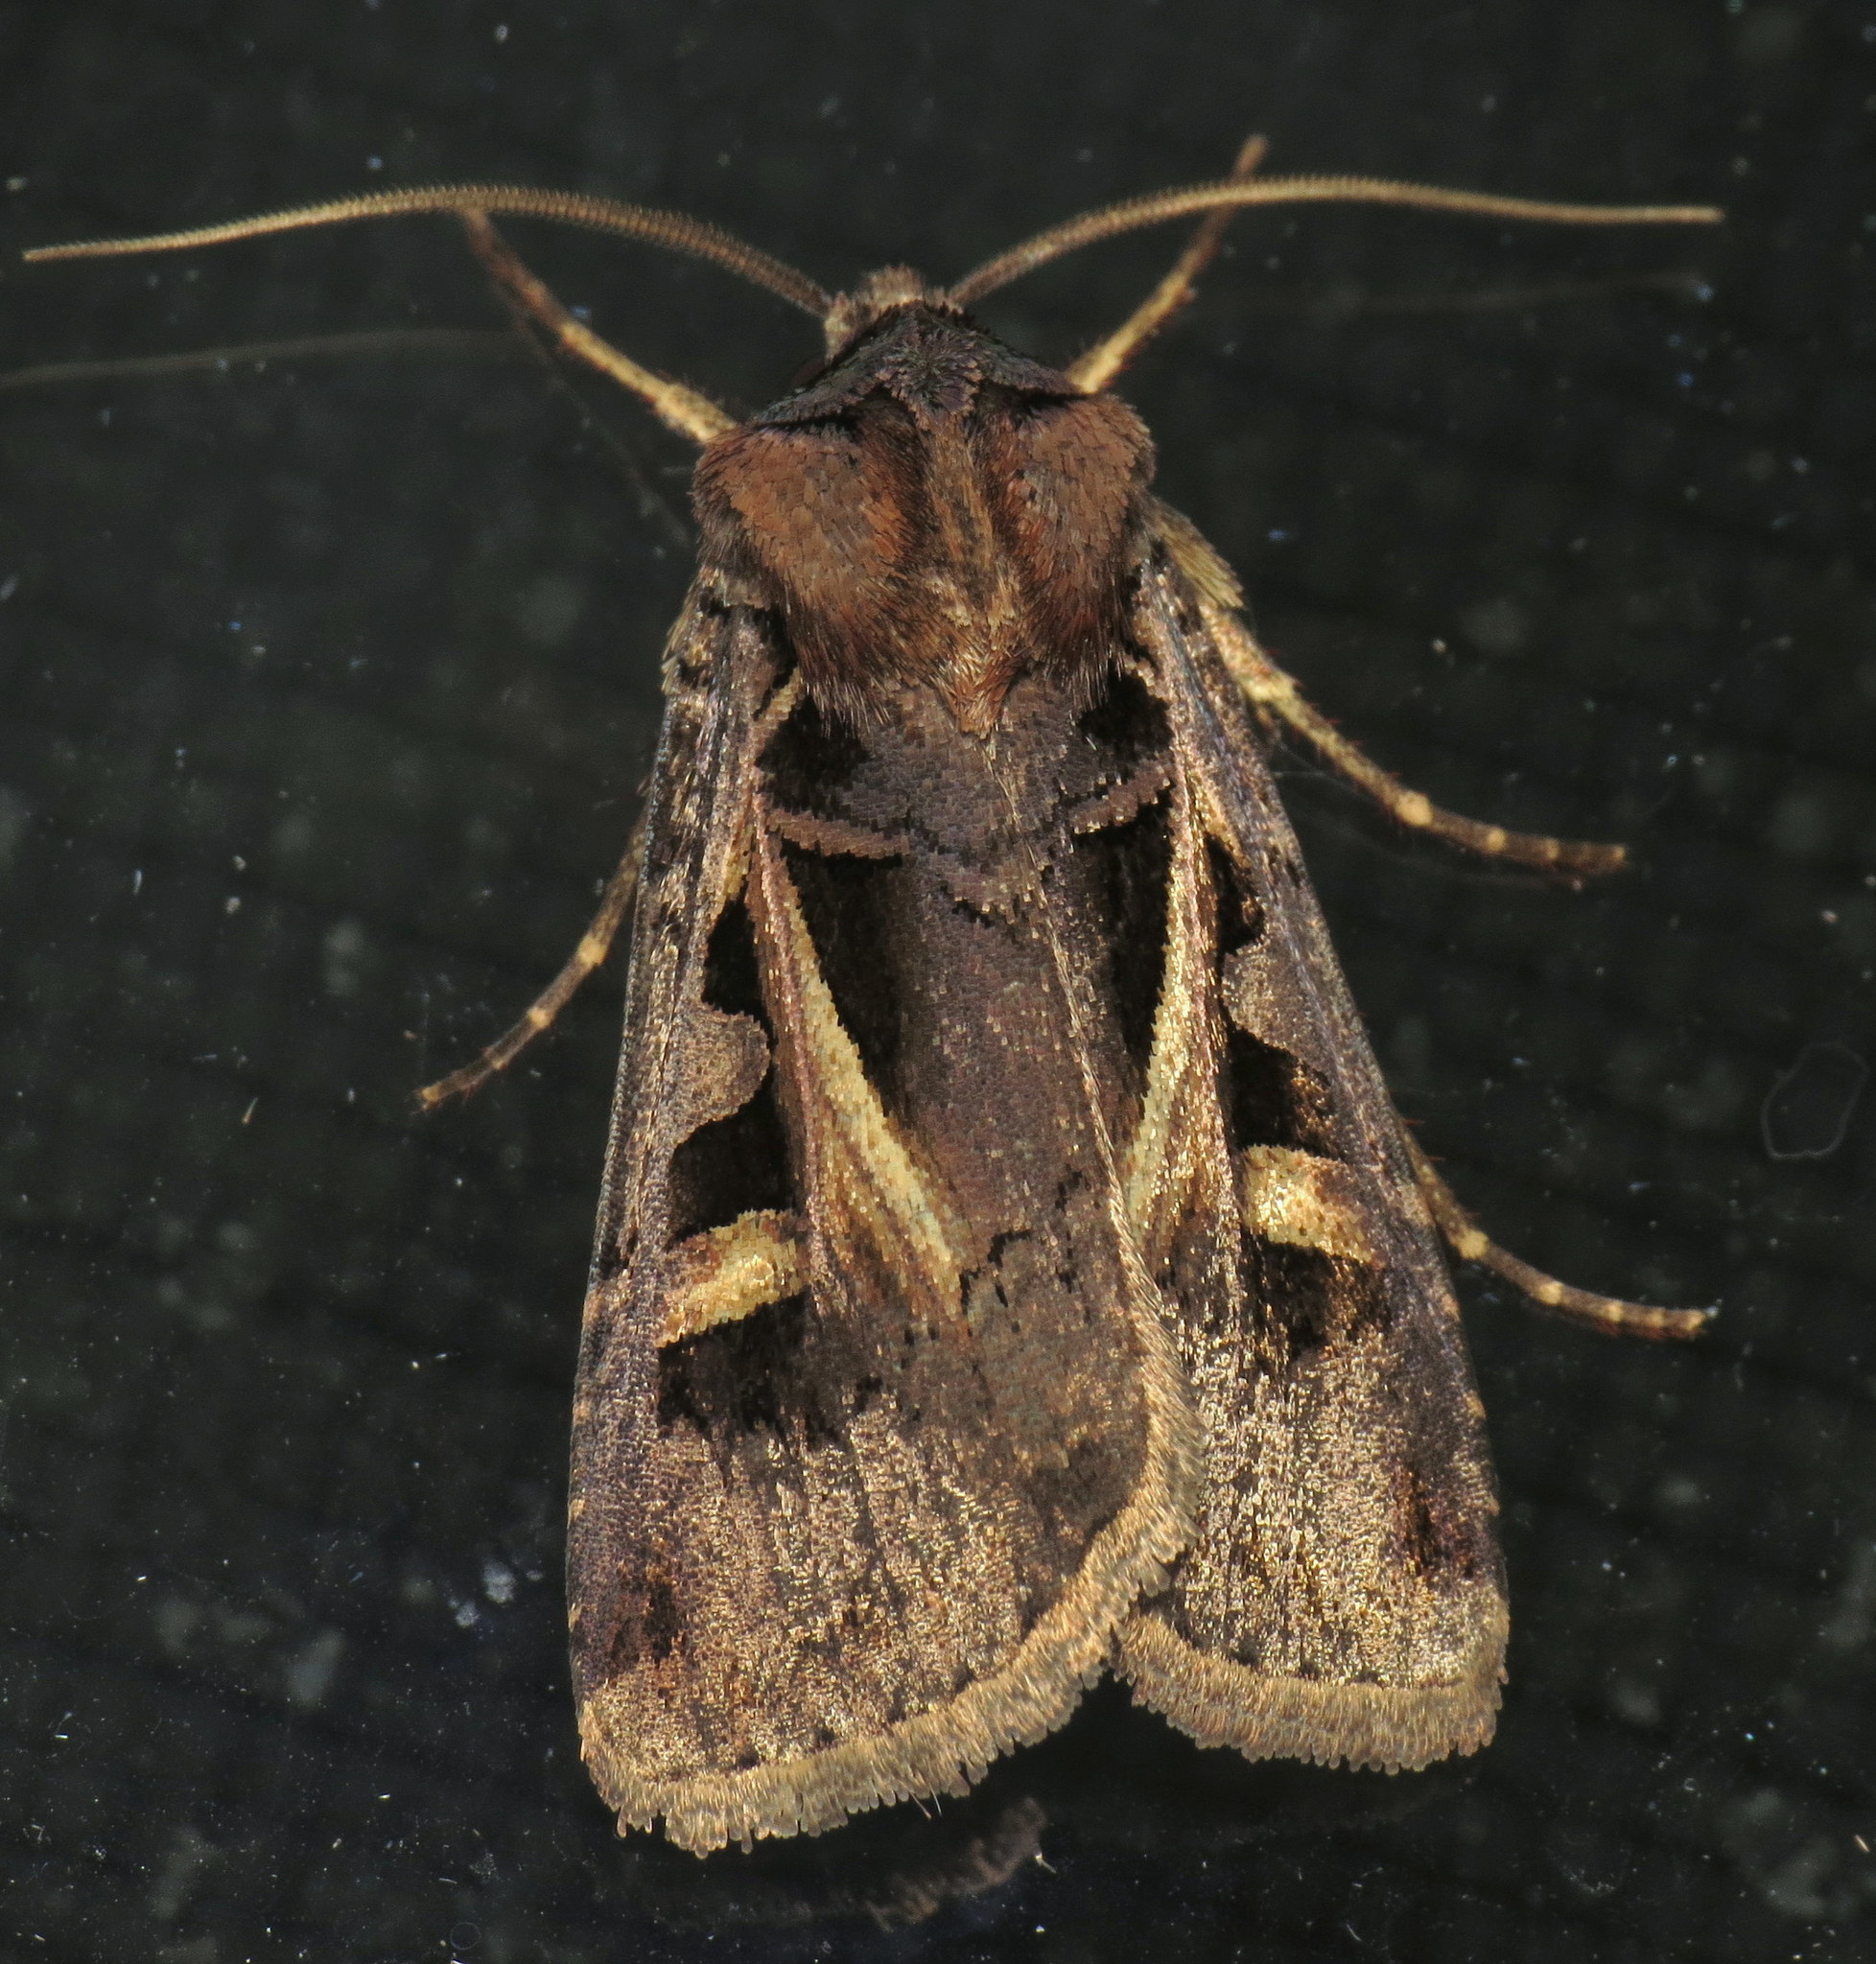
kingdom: Animalia
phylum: Arthropoda
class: Insecta
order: Lepidoptera
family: Noctuidae
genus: Feltia
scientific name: Feltia herilis
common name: Master's dart
